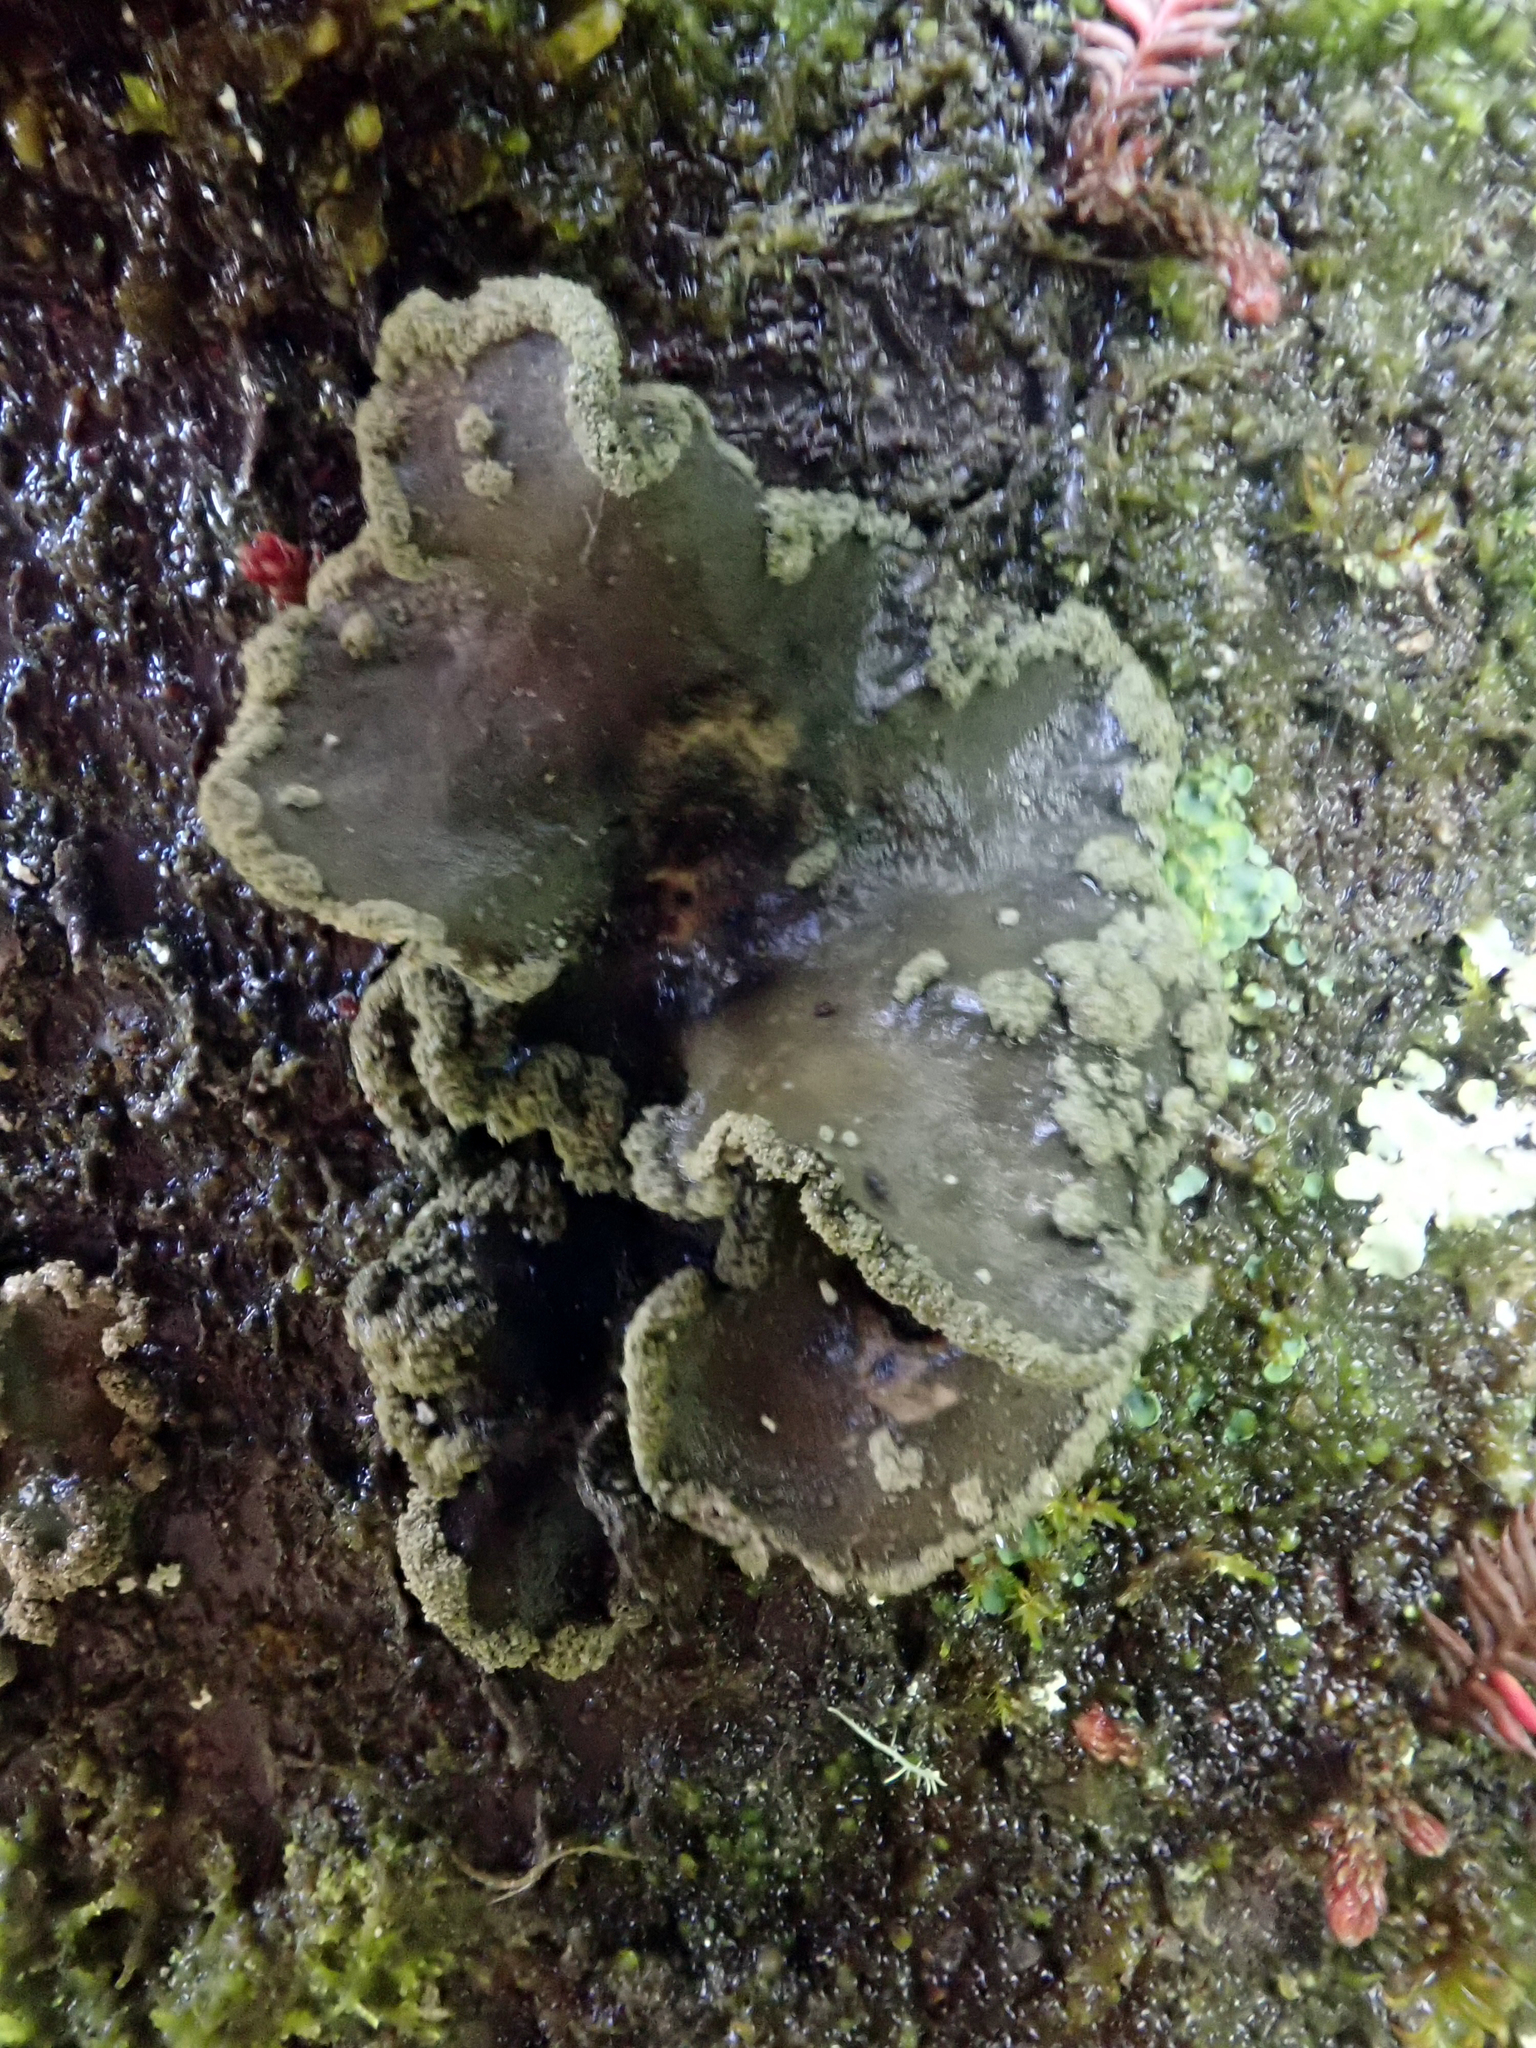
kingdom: Fungi
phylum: Ascomycota
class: Lecanoromycetes
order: Peltigerales
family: Lobariaceae
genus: Sticta
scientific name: Sticta limbata
